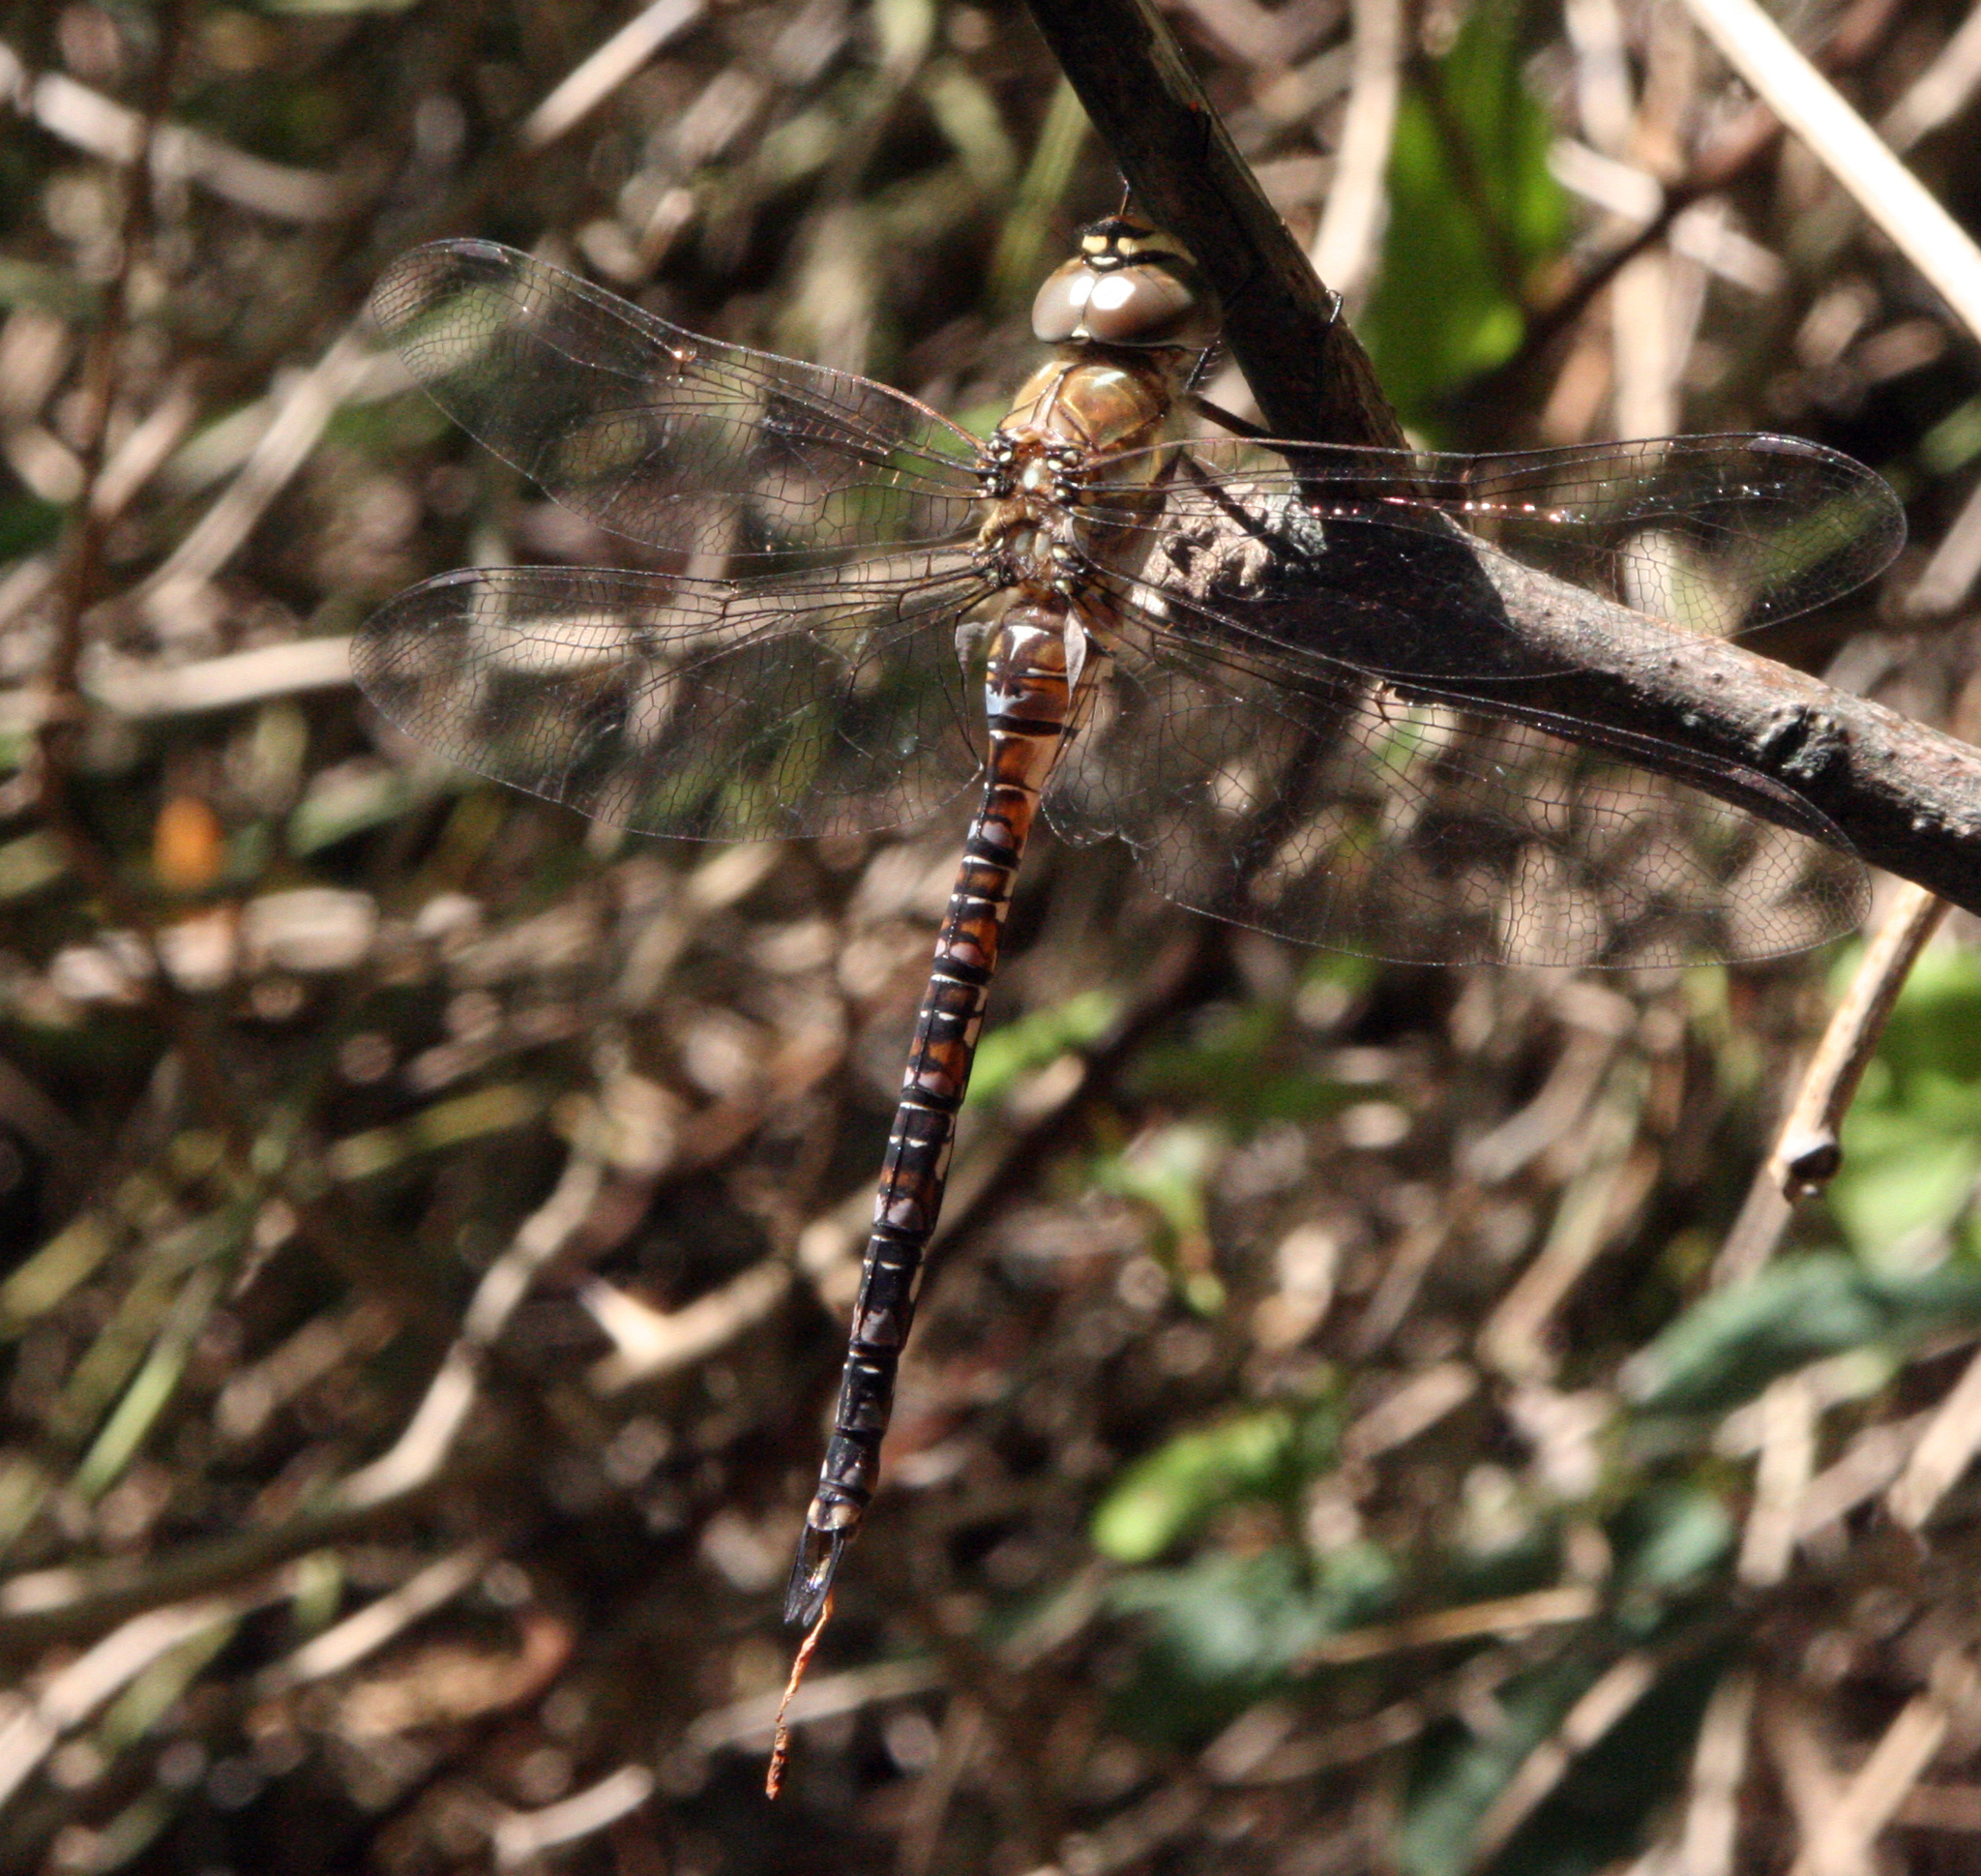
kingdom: Animalia
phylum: Arthropoda
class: Insecta
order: Odonata
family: Aeshnidae
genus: Aeshna
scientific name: Aeshna mixta
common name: Migrant hawker
